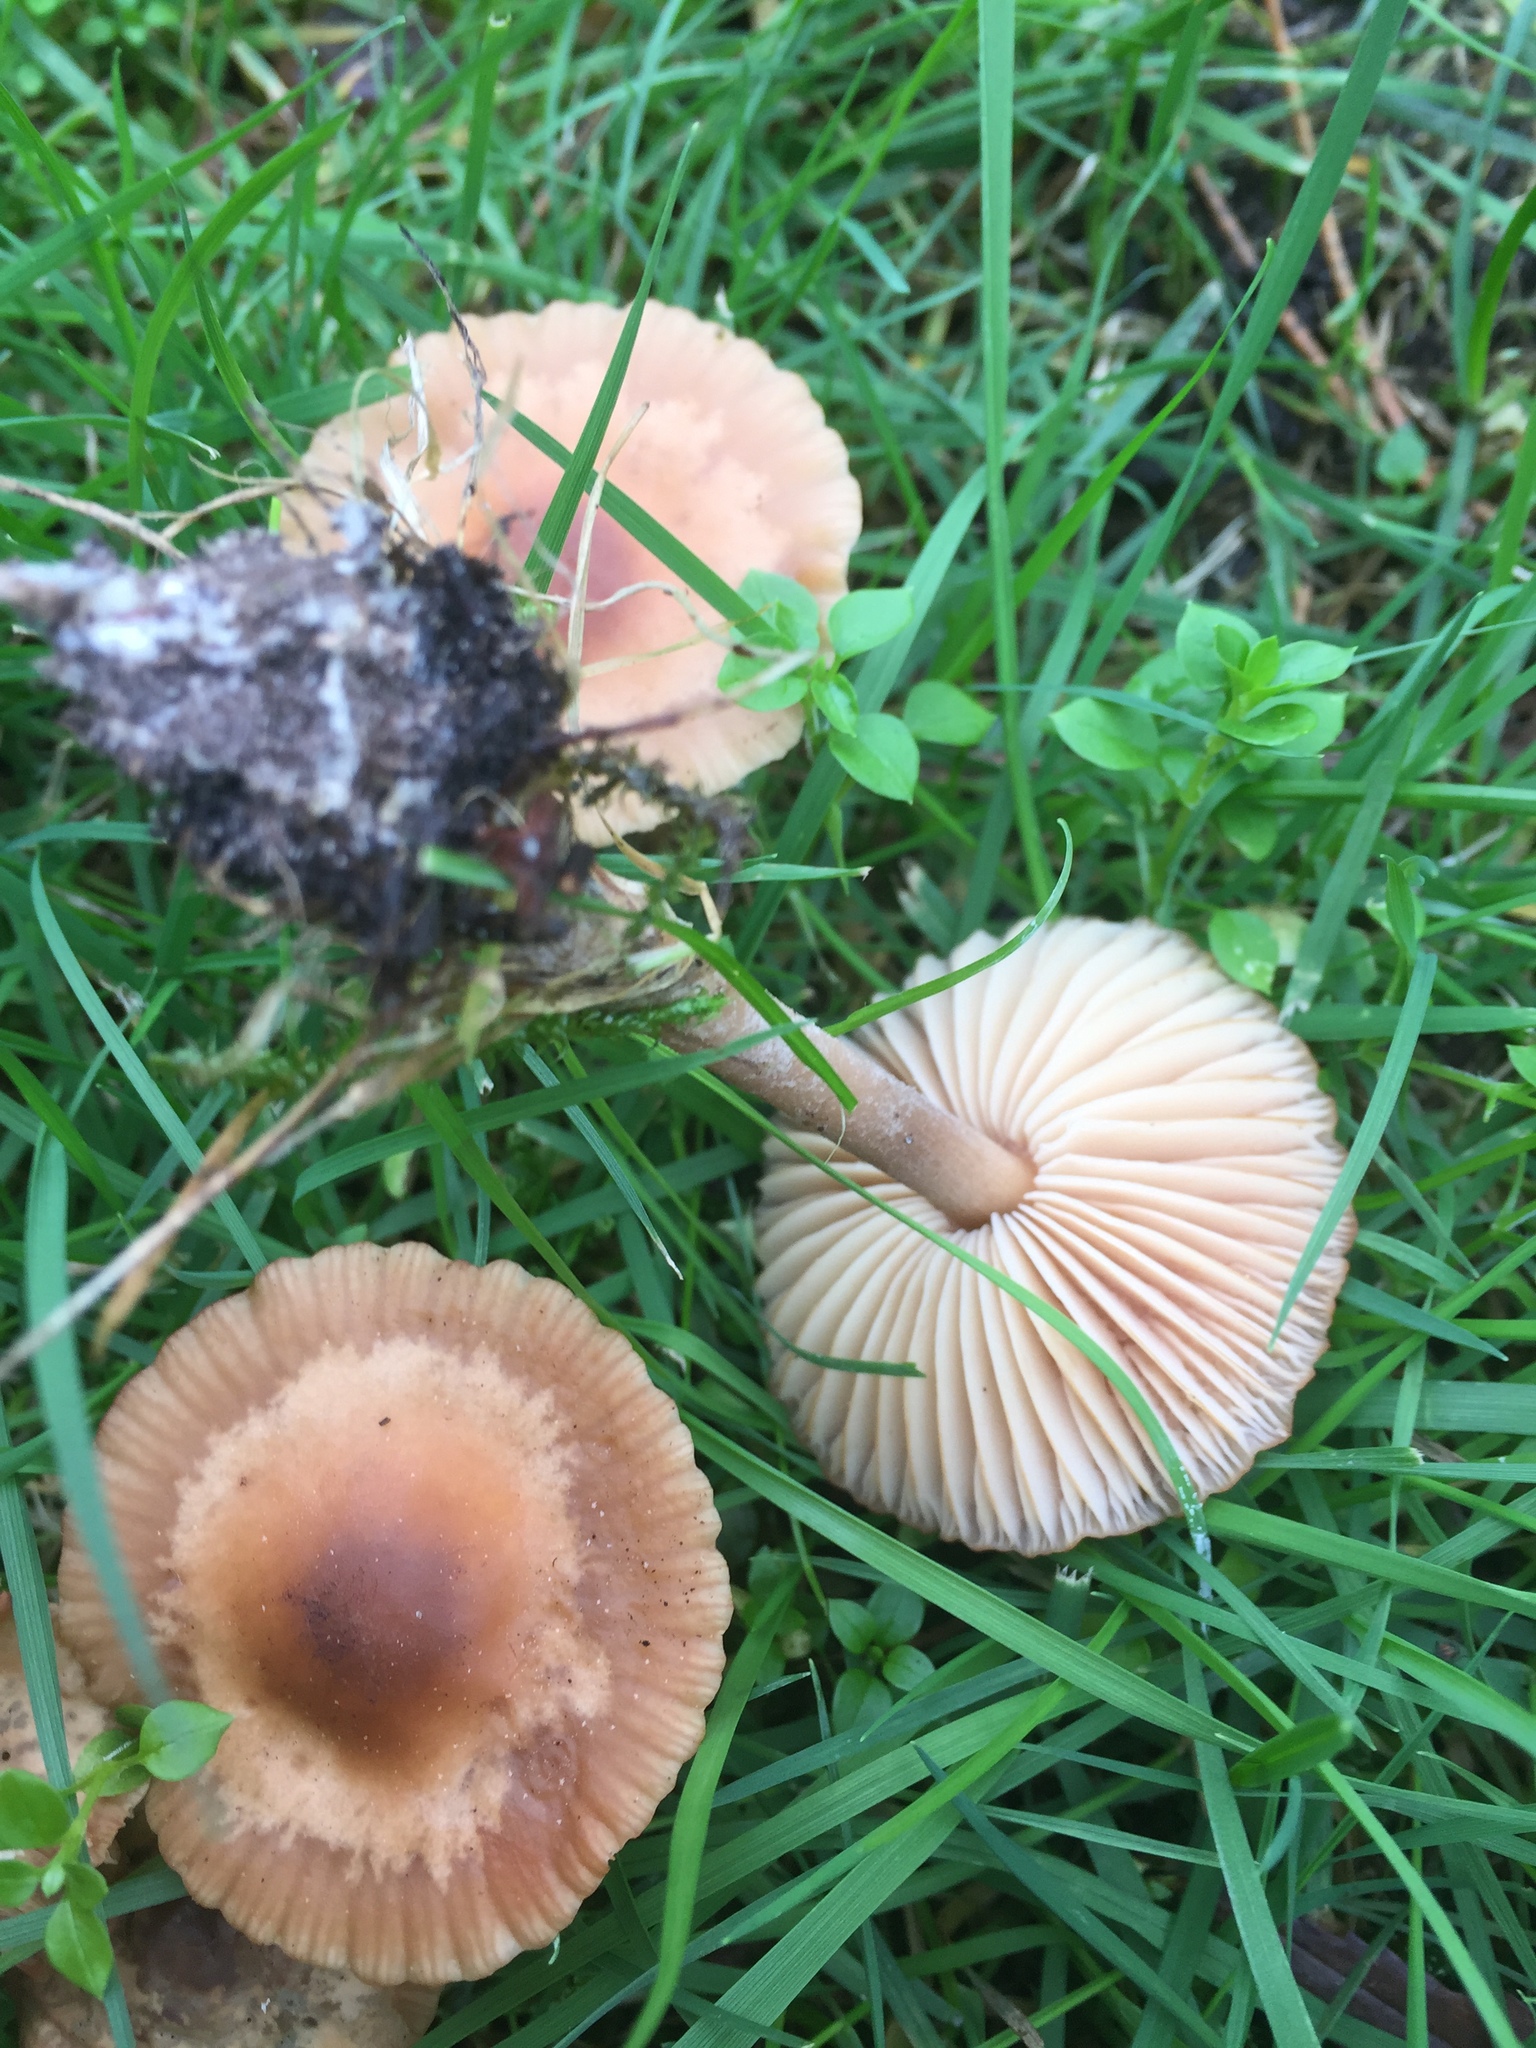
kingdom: Fungi
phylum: Basidiomycota
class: Agaricomycetes
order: Agaricales
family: Marasmiaceae
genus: Marasmius
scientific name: Marasmius oreades
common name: Fairy ring champignon
